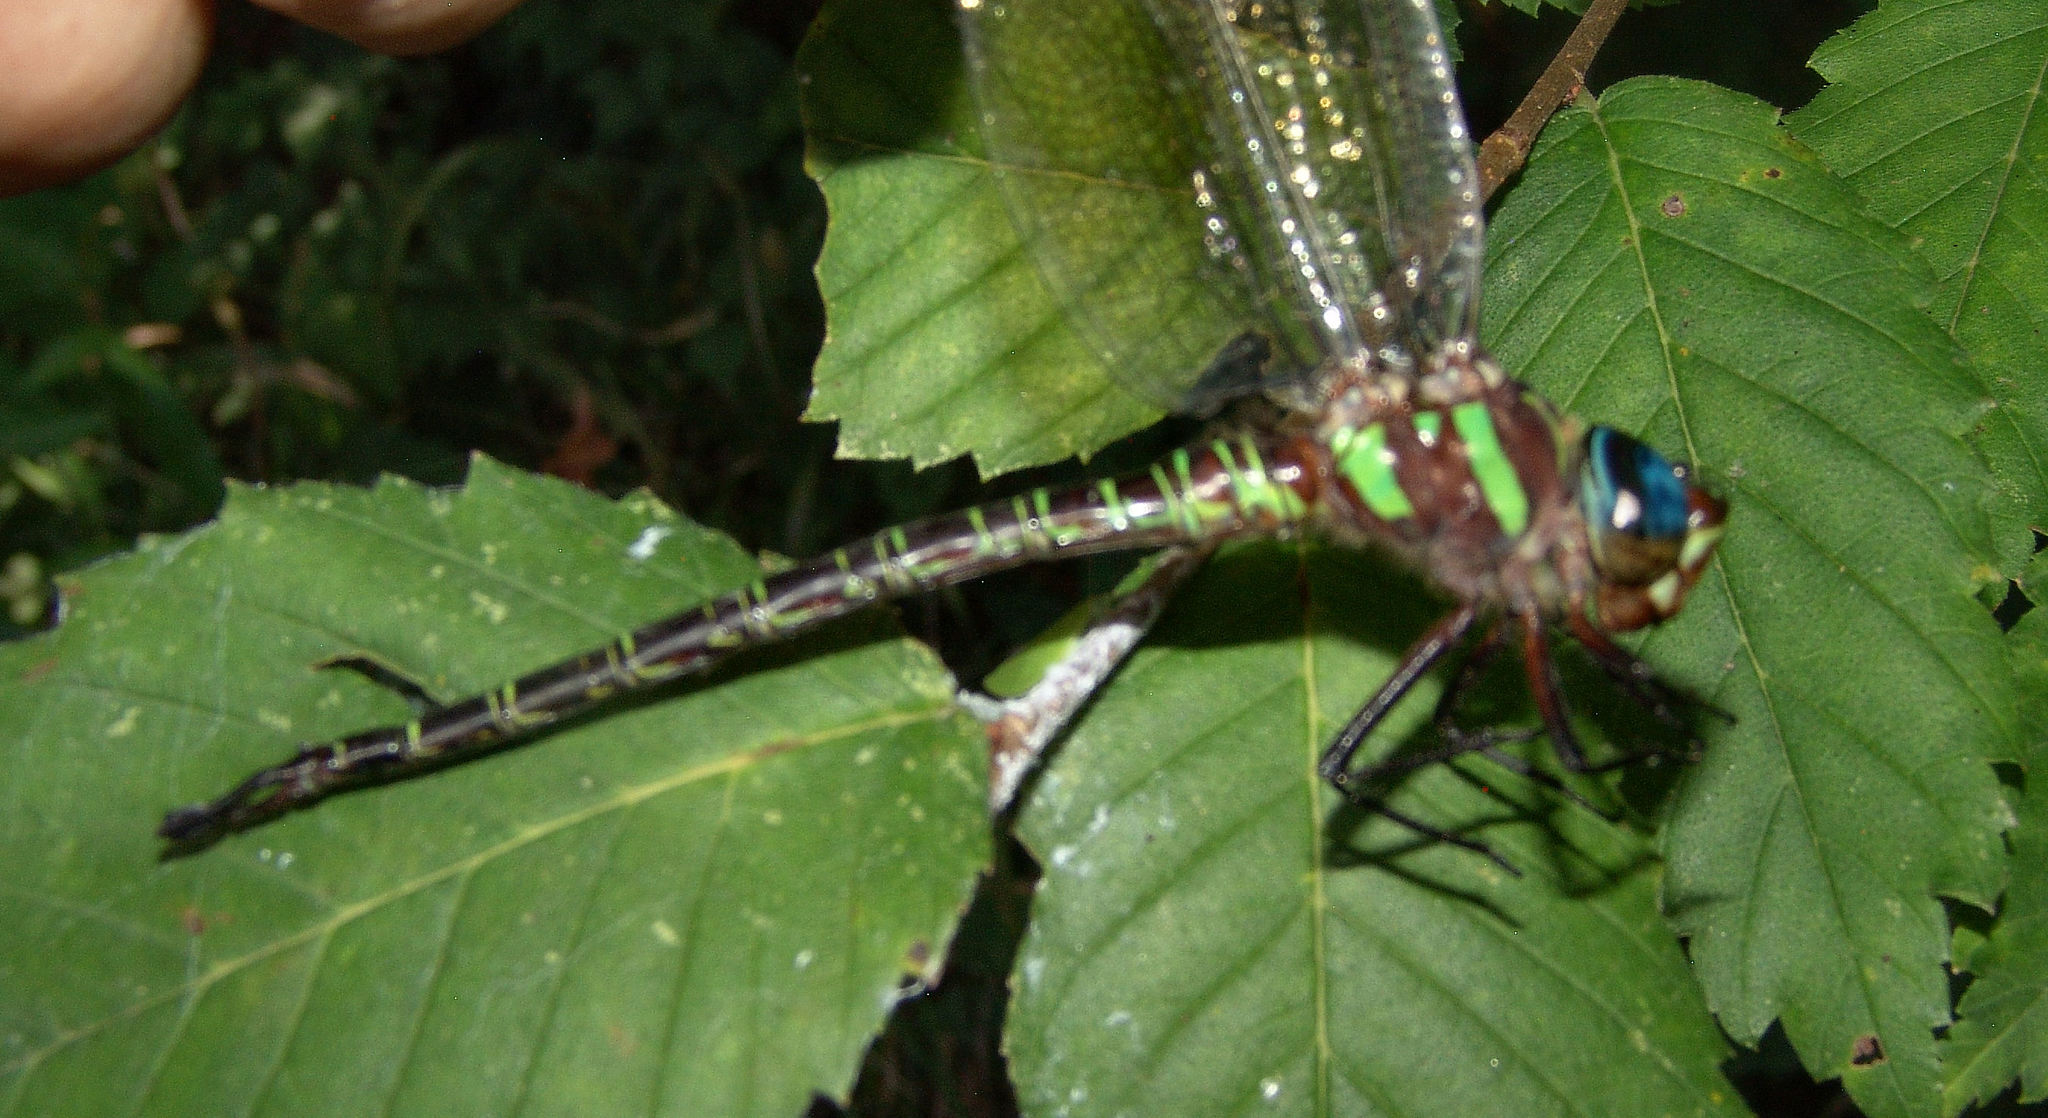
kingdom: Animalia
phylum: Arthropoda
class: Insecta
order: Odonata
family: Aeshnidae
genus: Epiaeschna
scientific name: Epiaeschna heros
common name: Swamp darner
